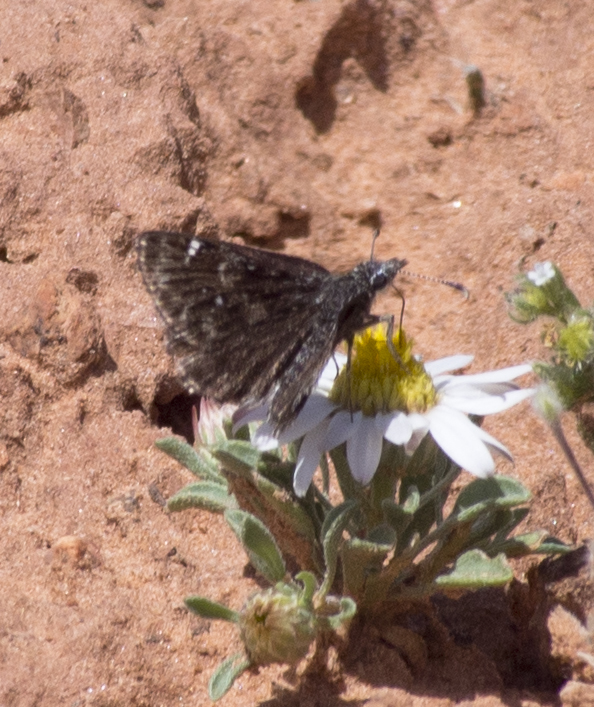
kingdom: Animalia
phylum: Arthropoda
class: Insecta
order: Lepidoptera
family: Hesperiidae
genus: Hesperopsis
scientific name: Hesperopsis alpheus
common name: Saltbush sootywing
